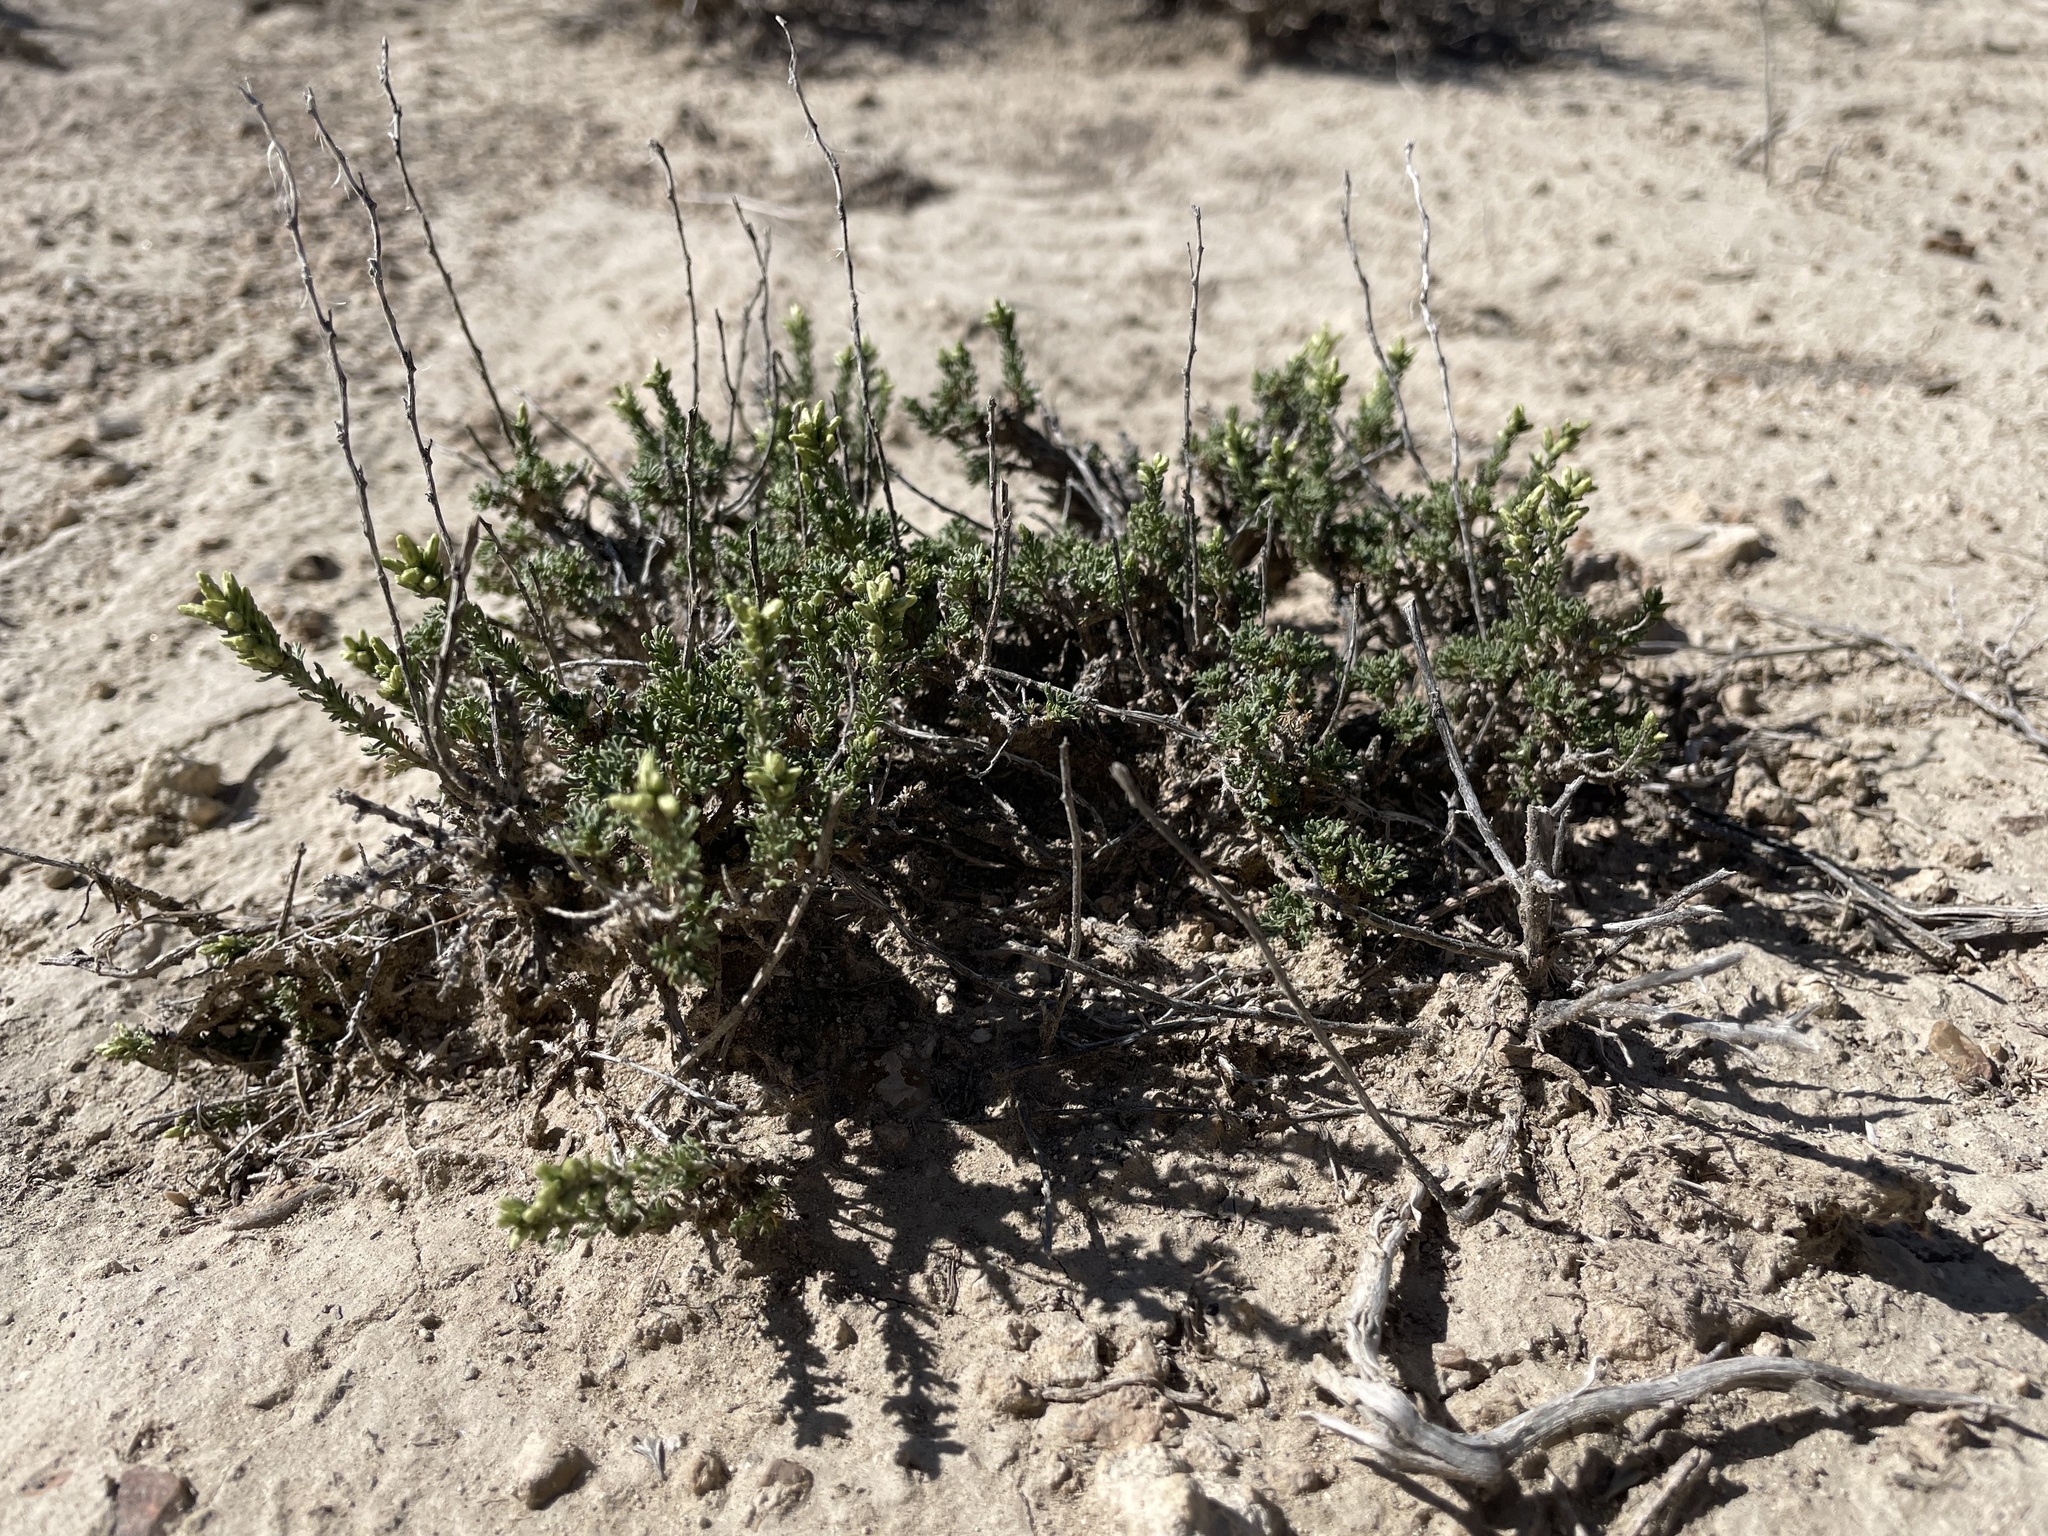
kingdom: Plantae
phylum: Tracheophyta
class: Magnoliopsida
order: Asterales
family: Asteraceae
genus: Artemisia
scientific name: Artemisia pygmaea
